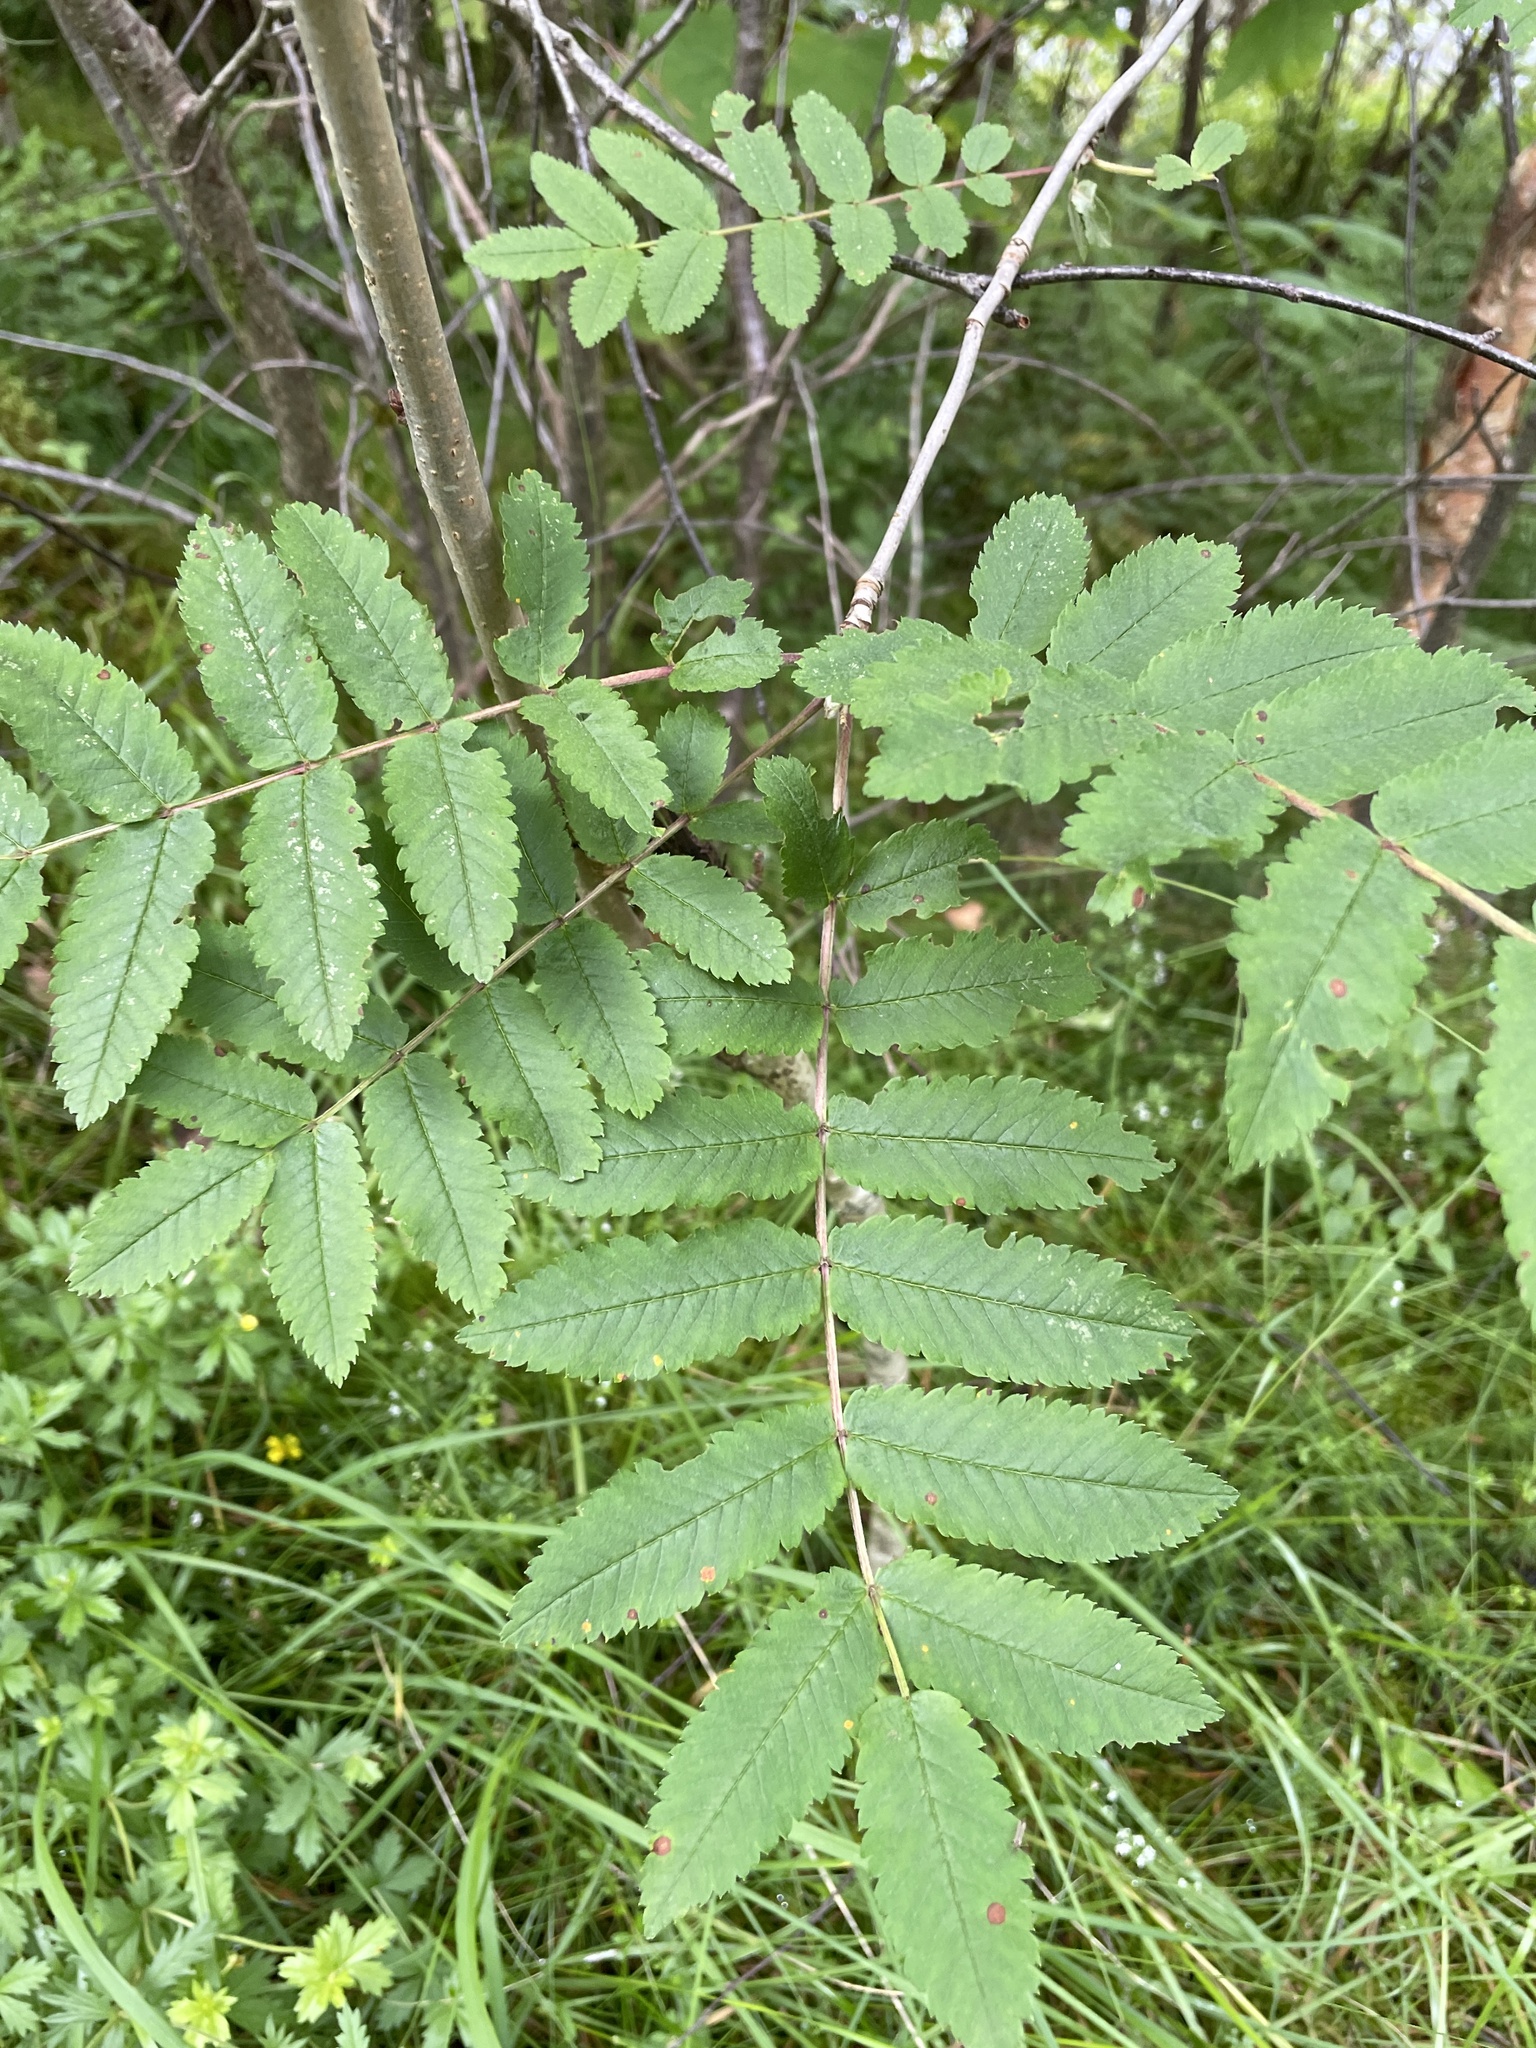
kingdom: Plantae
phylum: Tracheophyta
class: Magnoliopsida
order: Rosales
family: Rosaceae
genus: Sorbus
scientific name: Sorbus aucuparia
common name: Rowan
